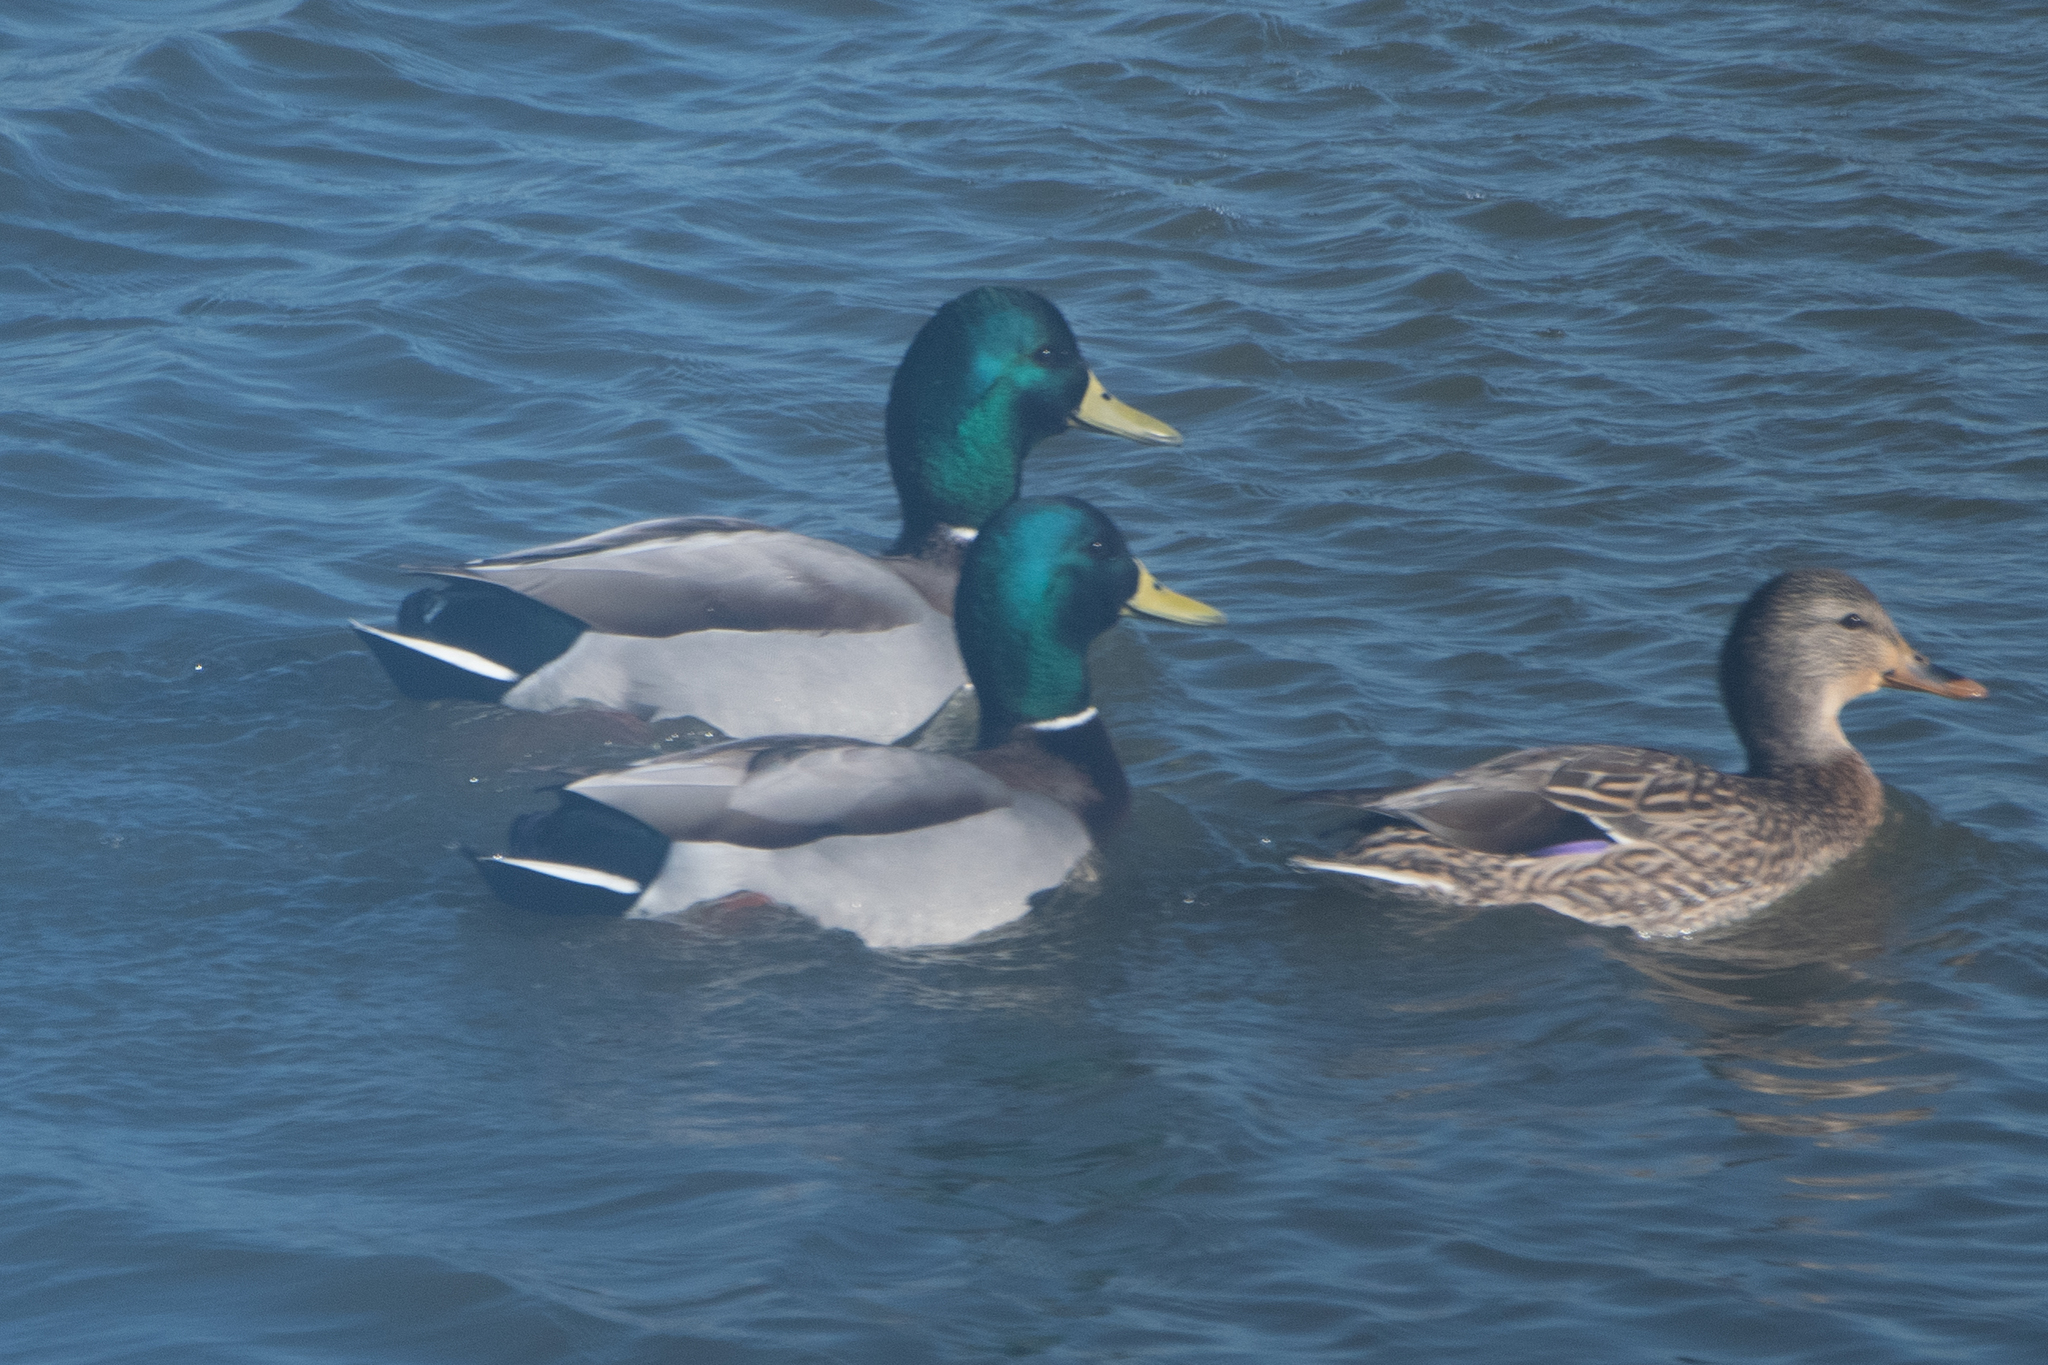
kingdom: Animalia
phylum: Chordata
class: Aves
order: Anseriformes
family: Anatidae
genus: Anas
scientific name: Anas platyrhynchos
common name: Mallard
